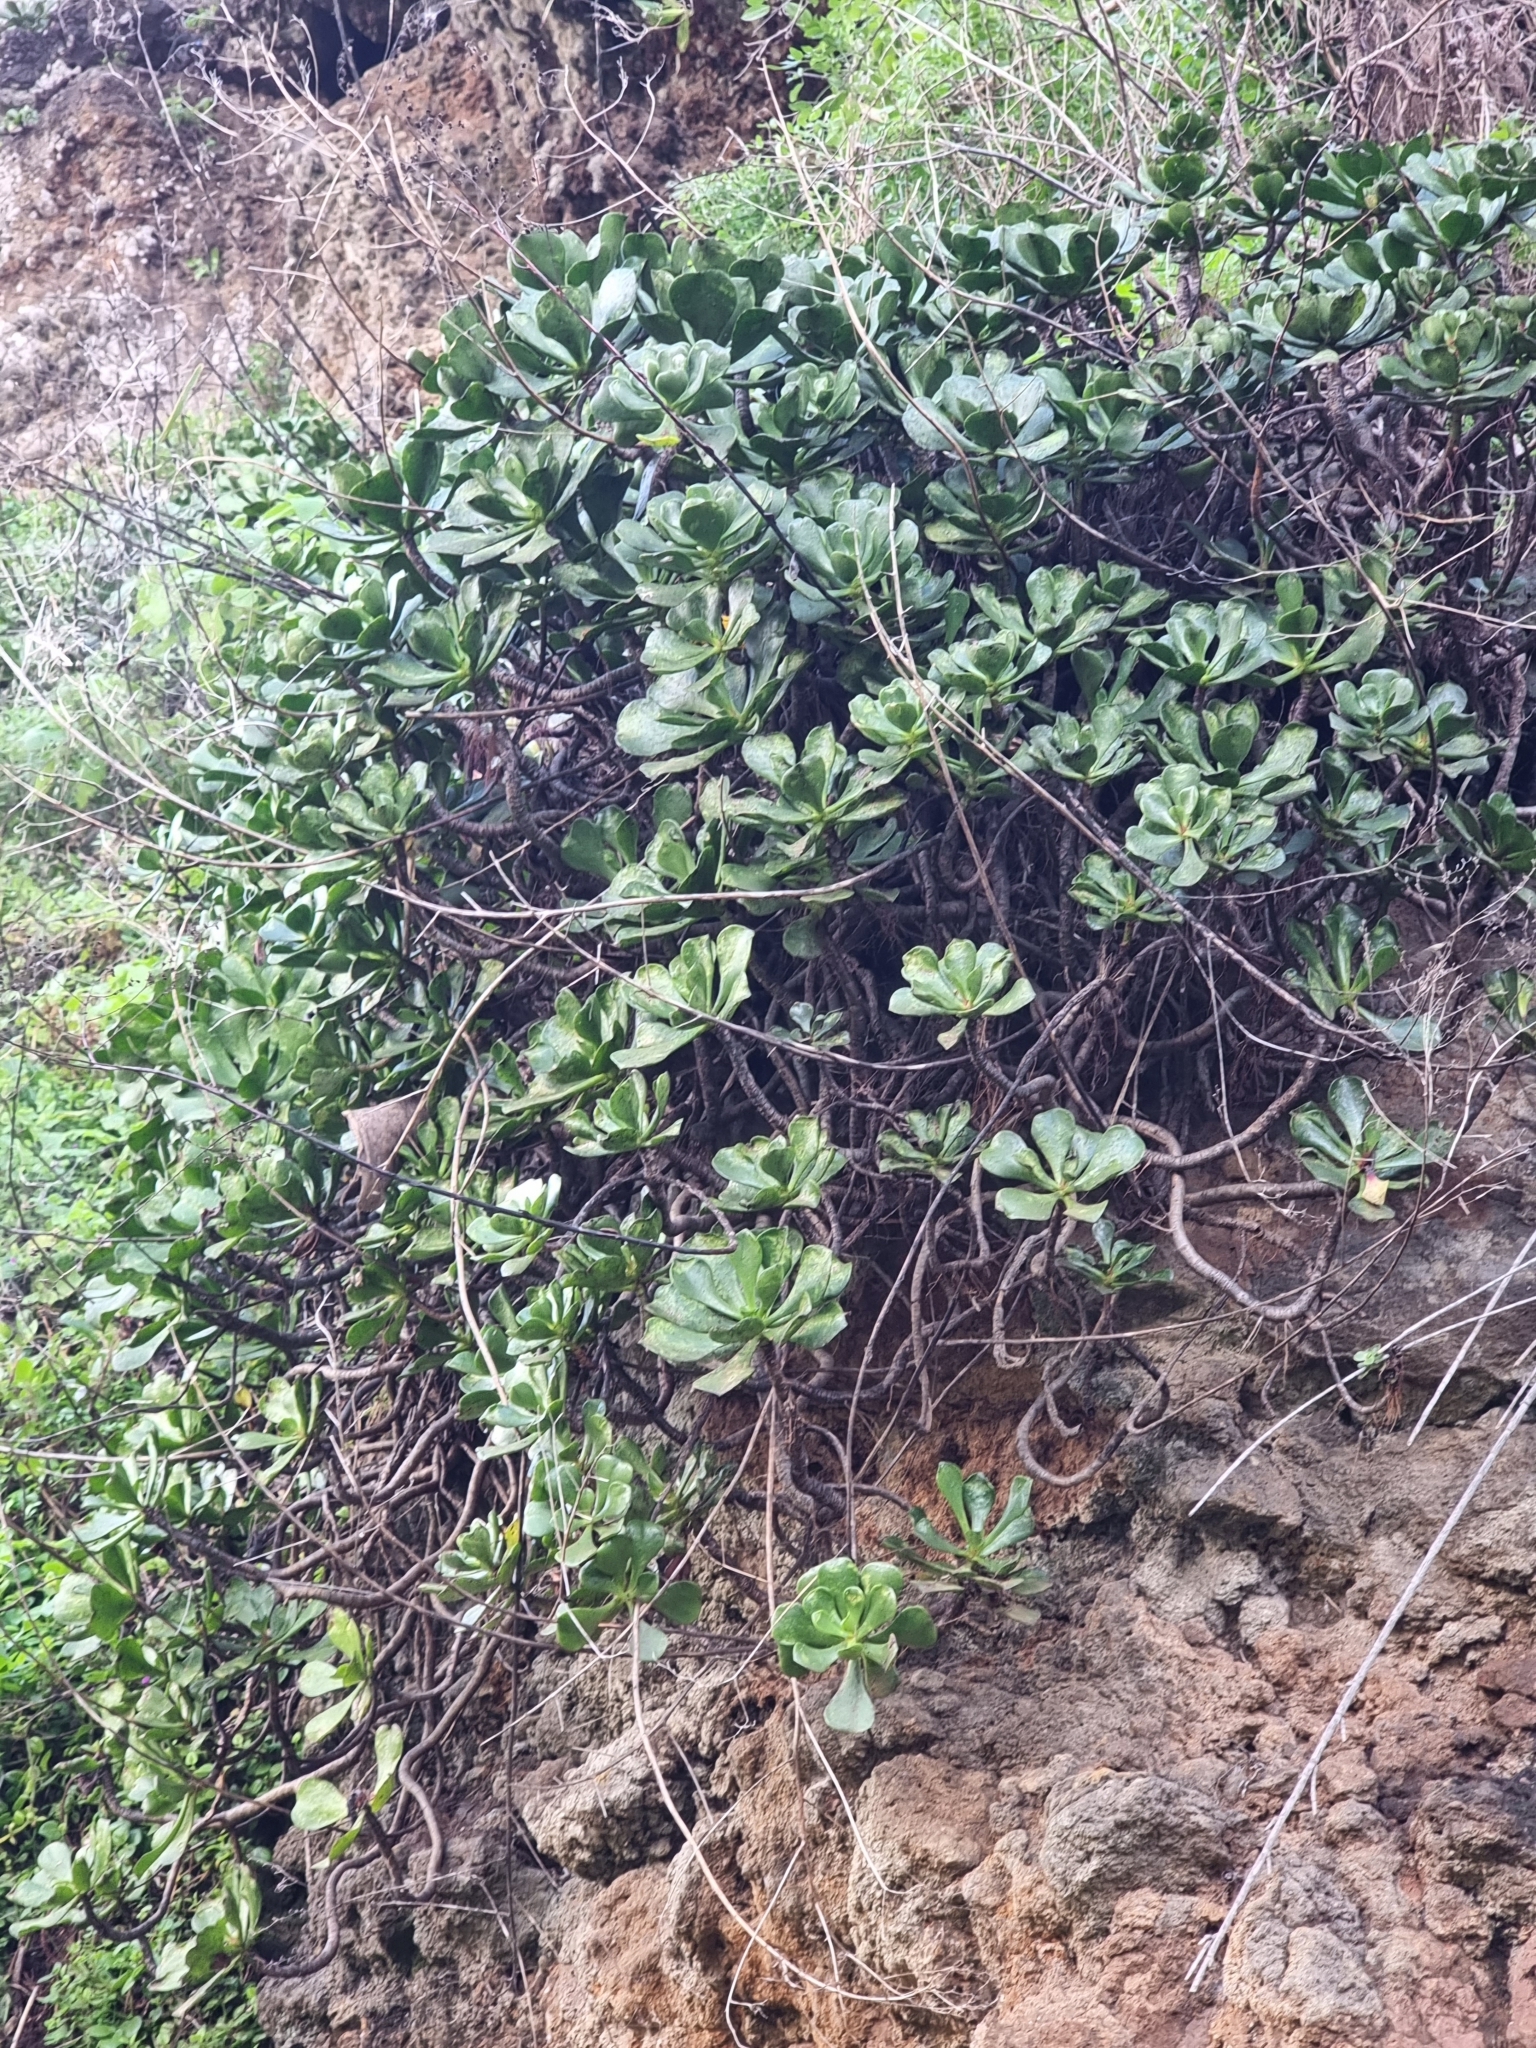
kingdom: Plantae
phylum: Tracheophyta
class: Magnoliopsida
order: Saxifragales
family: Crassulaceae
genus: Aeonium
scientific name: Aeonium glutinosum
